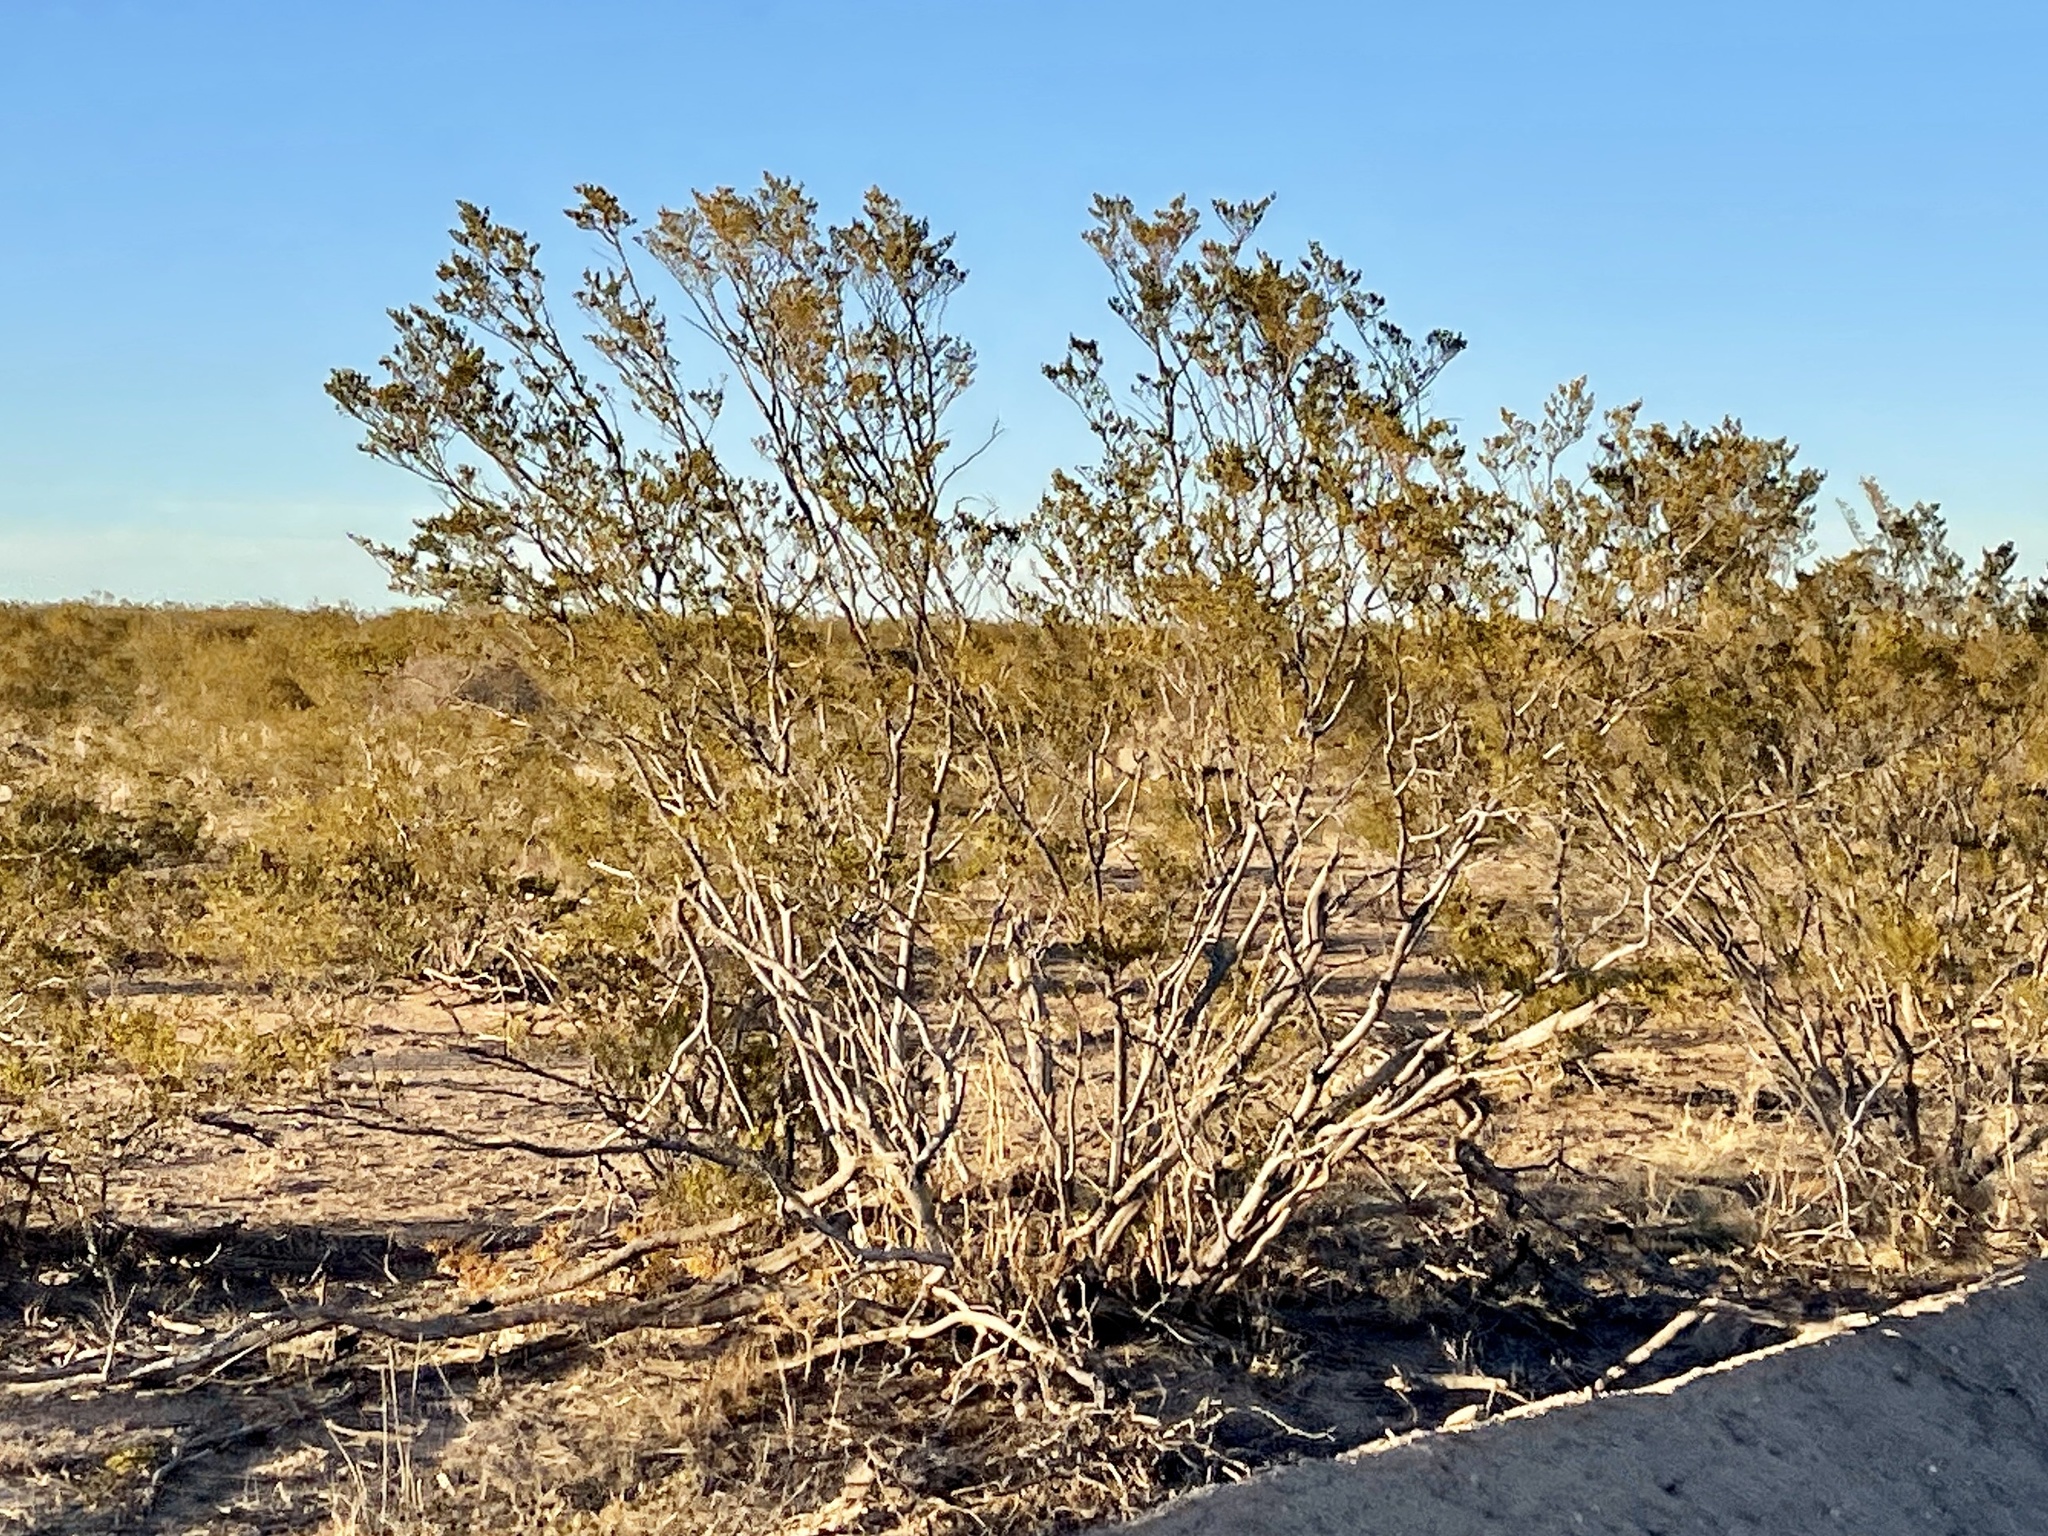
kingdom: Plantae
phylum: Tracheophyta
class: Magnoliopsida
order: Zygophyllales
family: Zygophyllaceae
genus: Larrea
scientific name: Larrea tridentata
